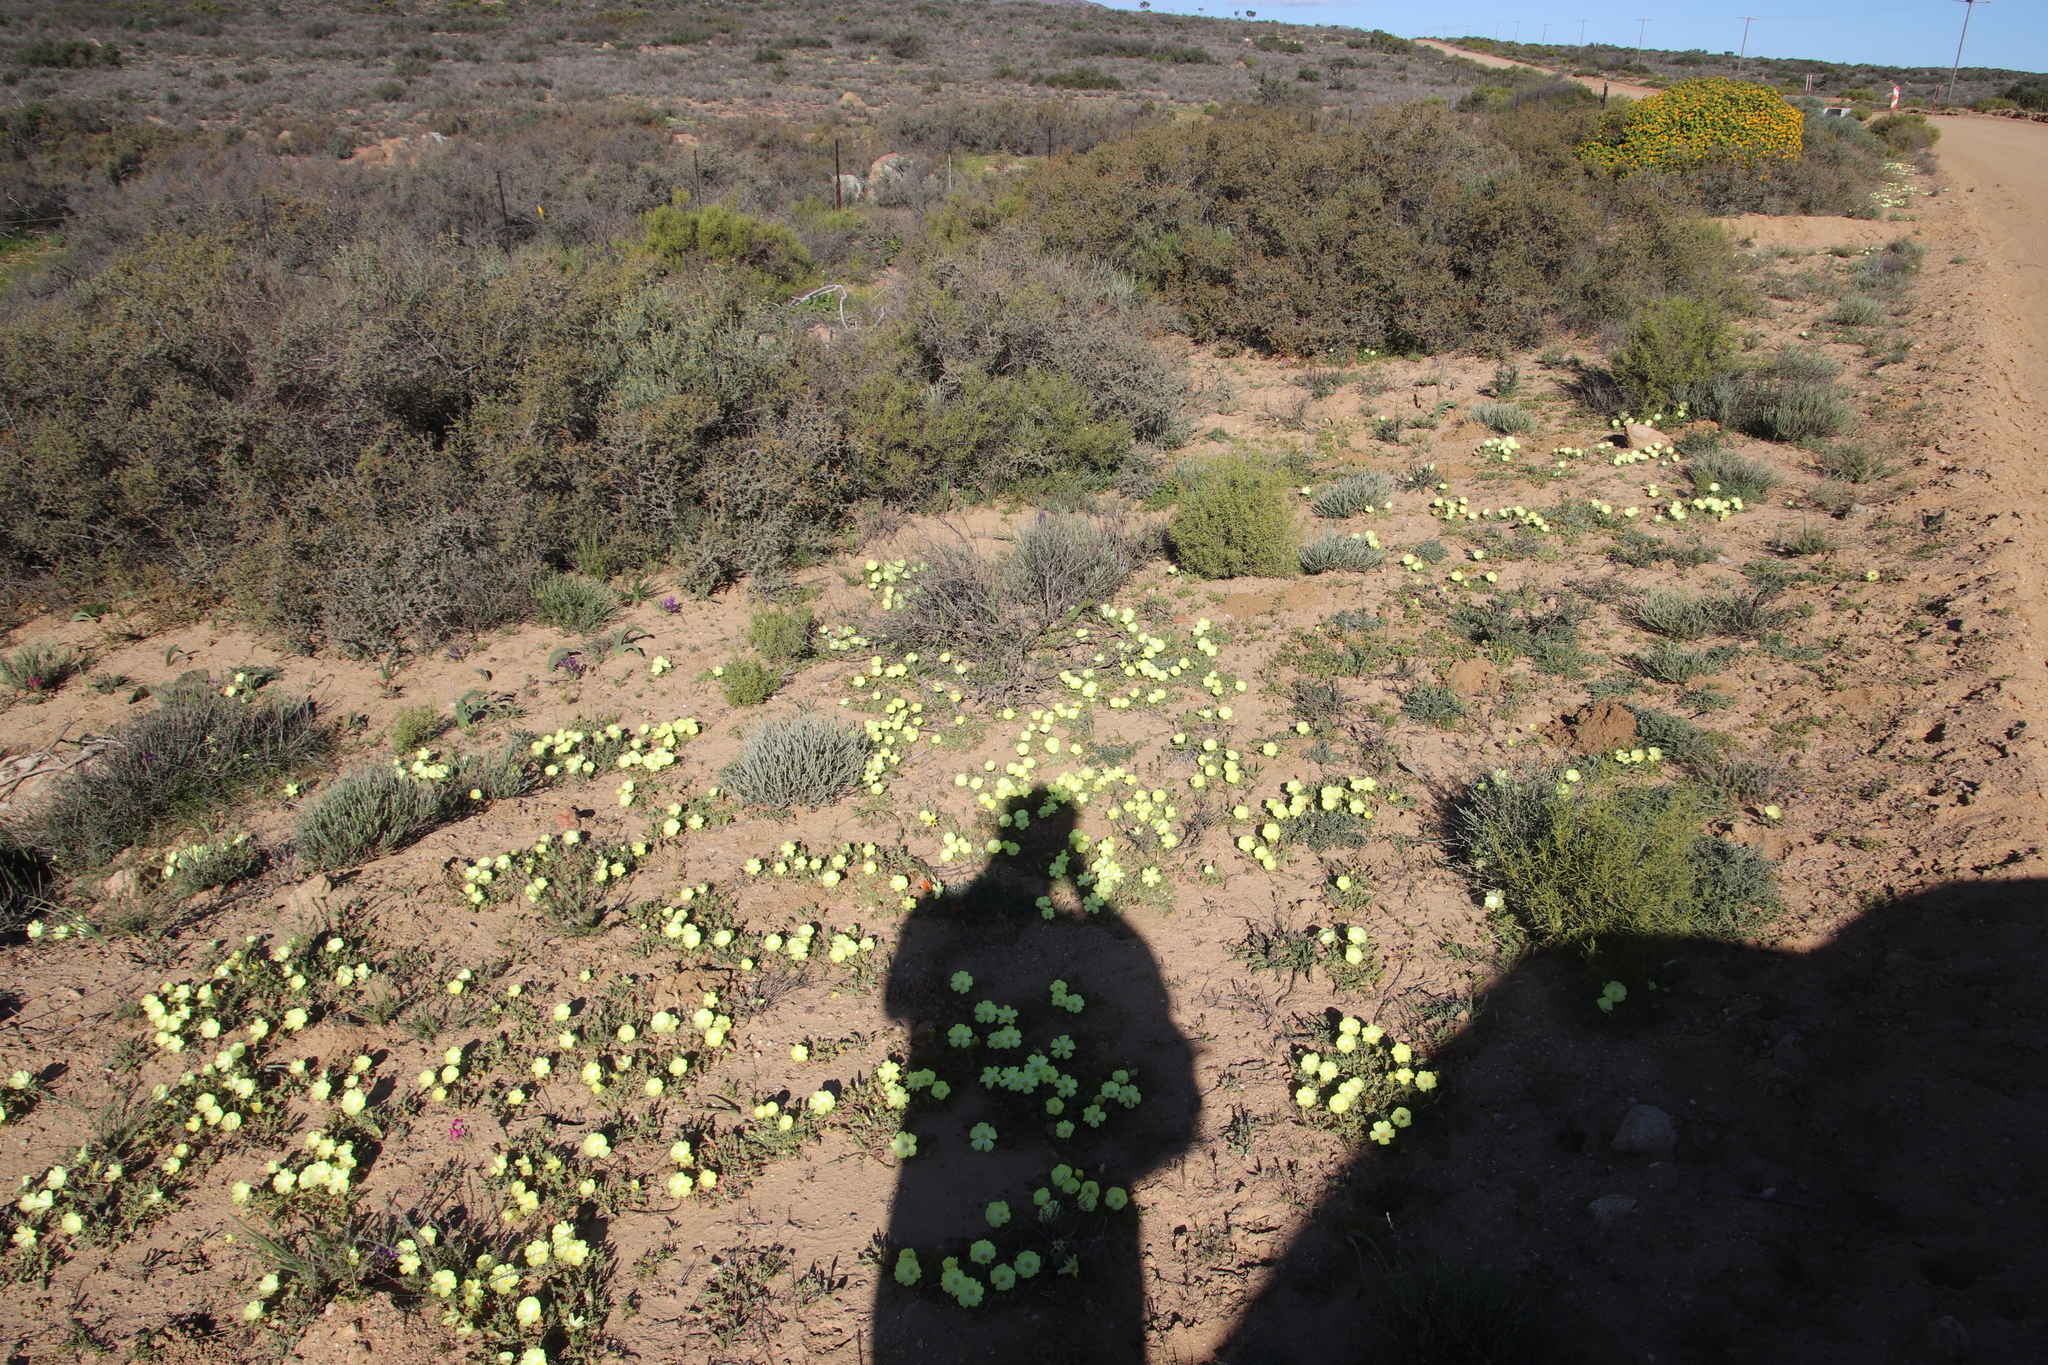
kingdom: Plantae
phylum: Tracheophyta
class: Magnoliopsida
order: Malvales
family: Neuradaceae
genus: Grielum
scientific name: Grielum humifusum
